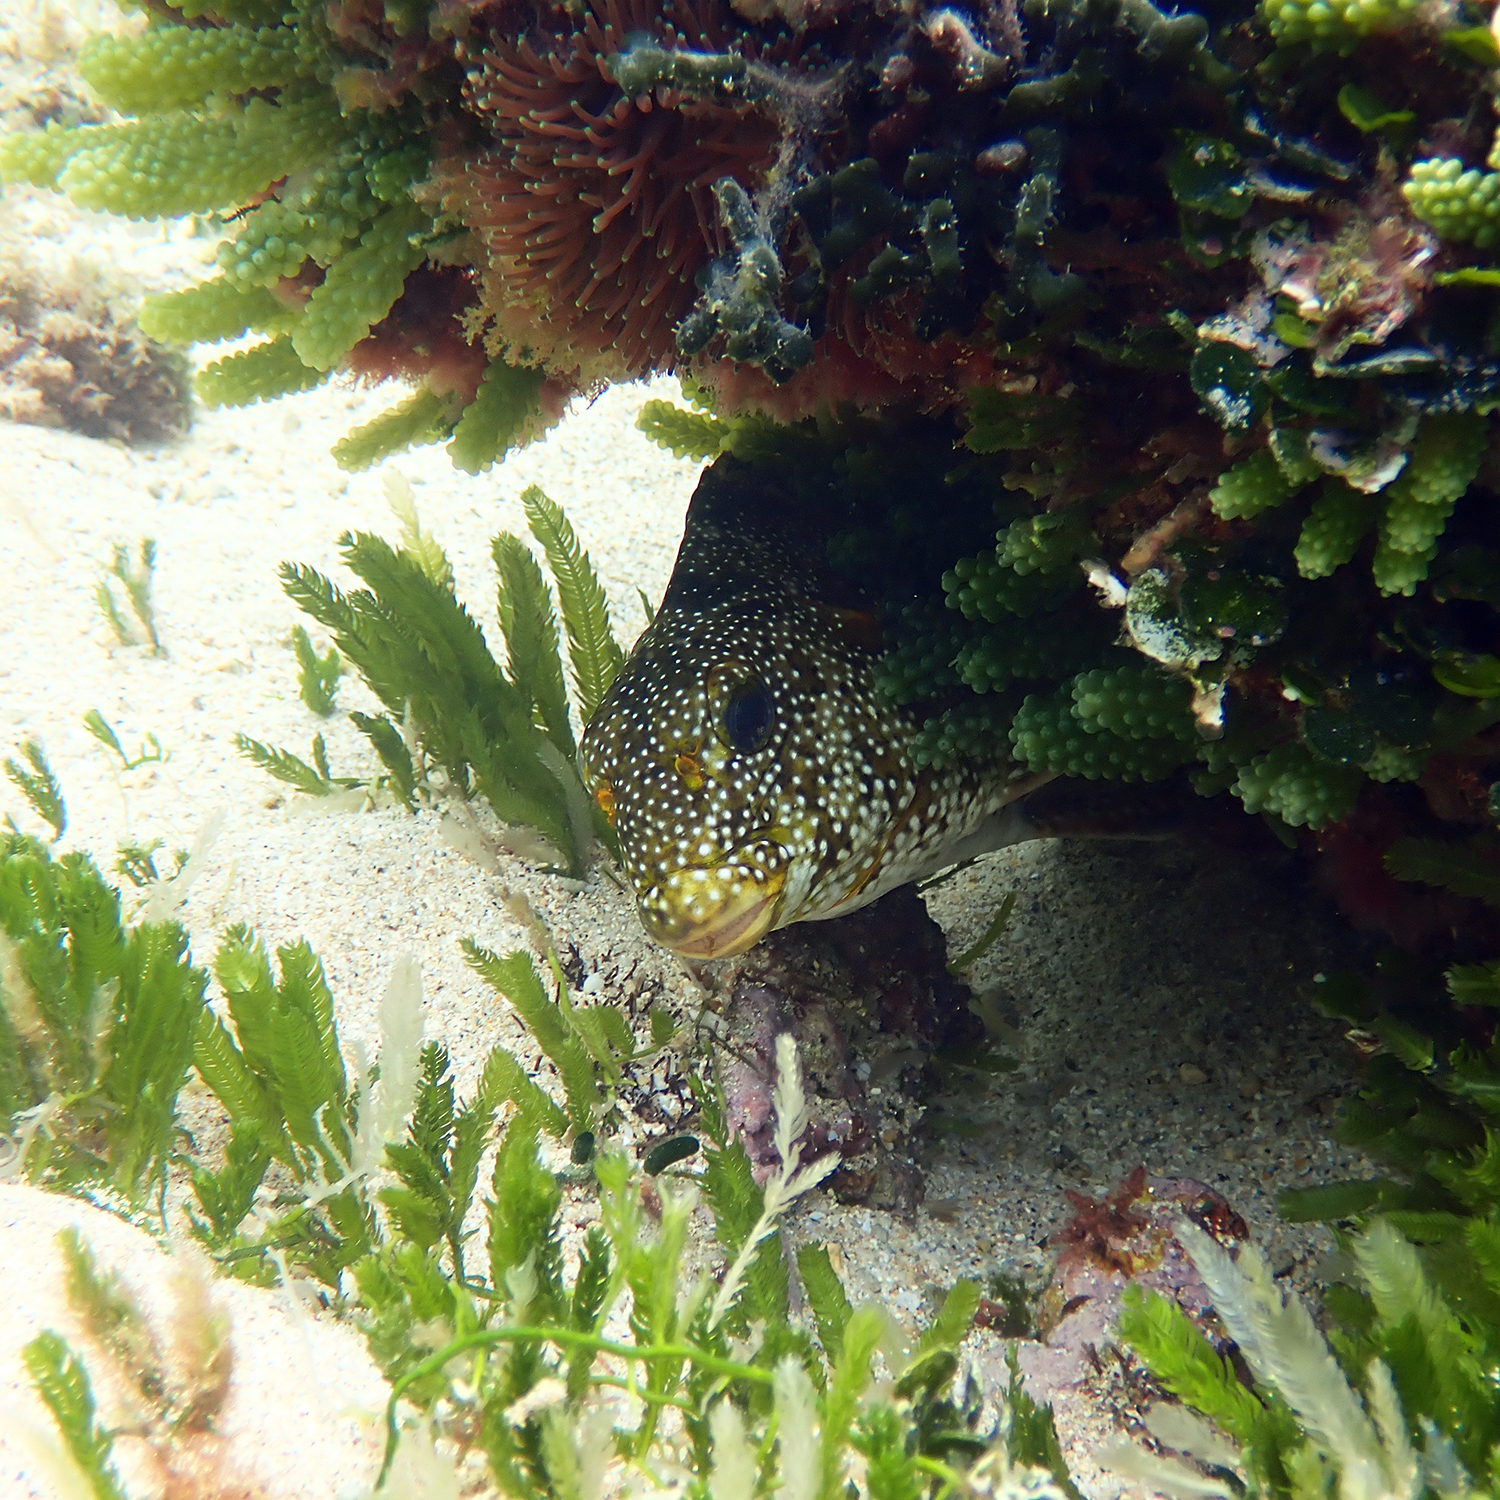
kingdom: Animalia
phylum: Chordata
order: Perciformes
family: Aplodactylidae
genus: Aplodactylus
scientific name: Aplodactylus etheridgii
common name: Notchheaded marblefish
